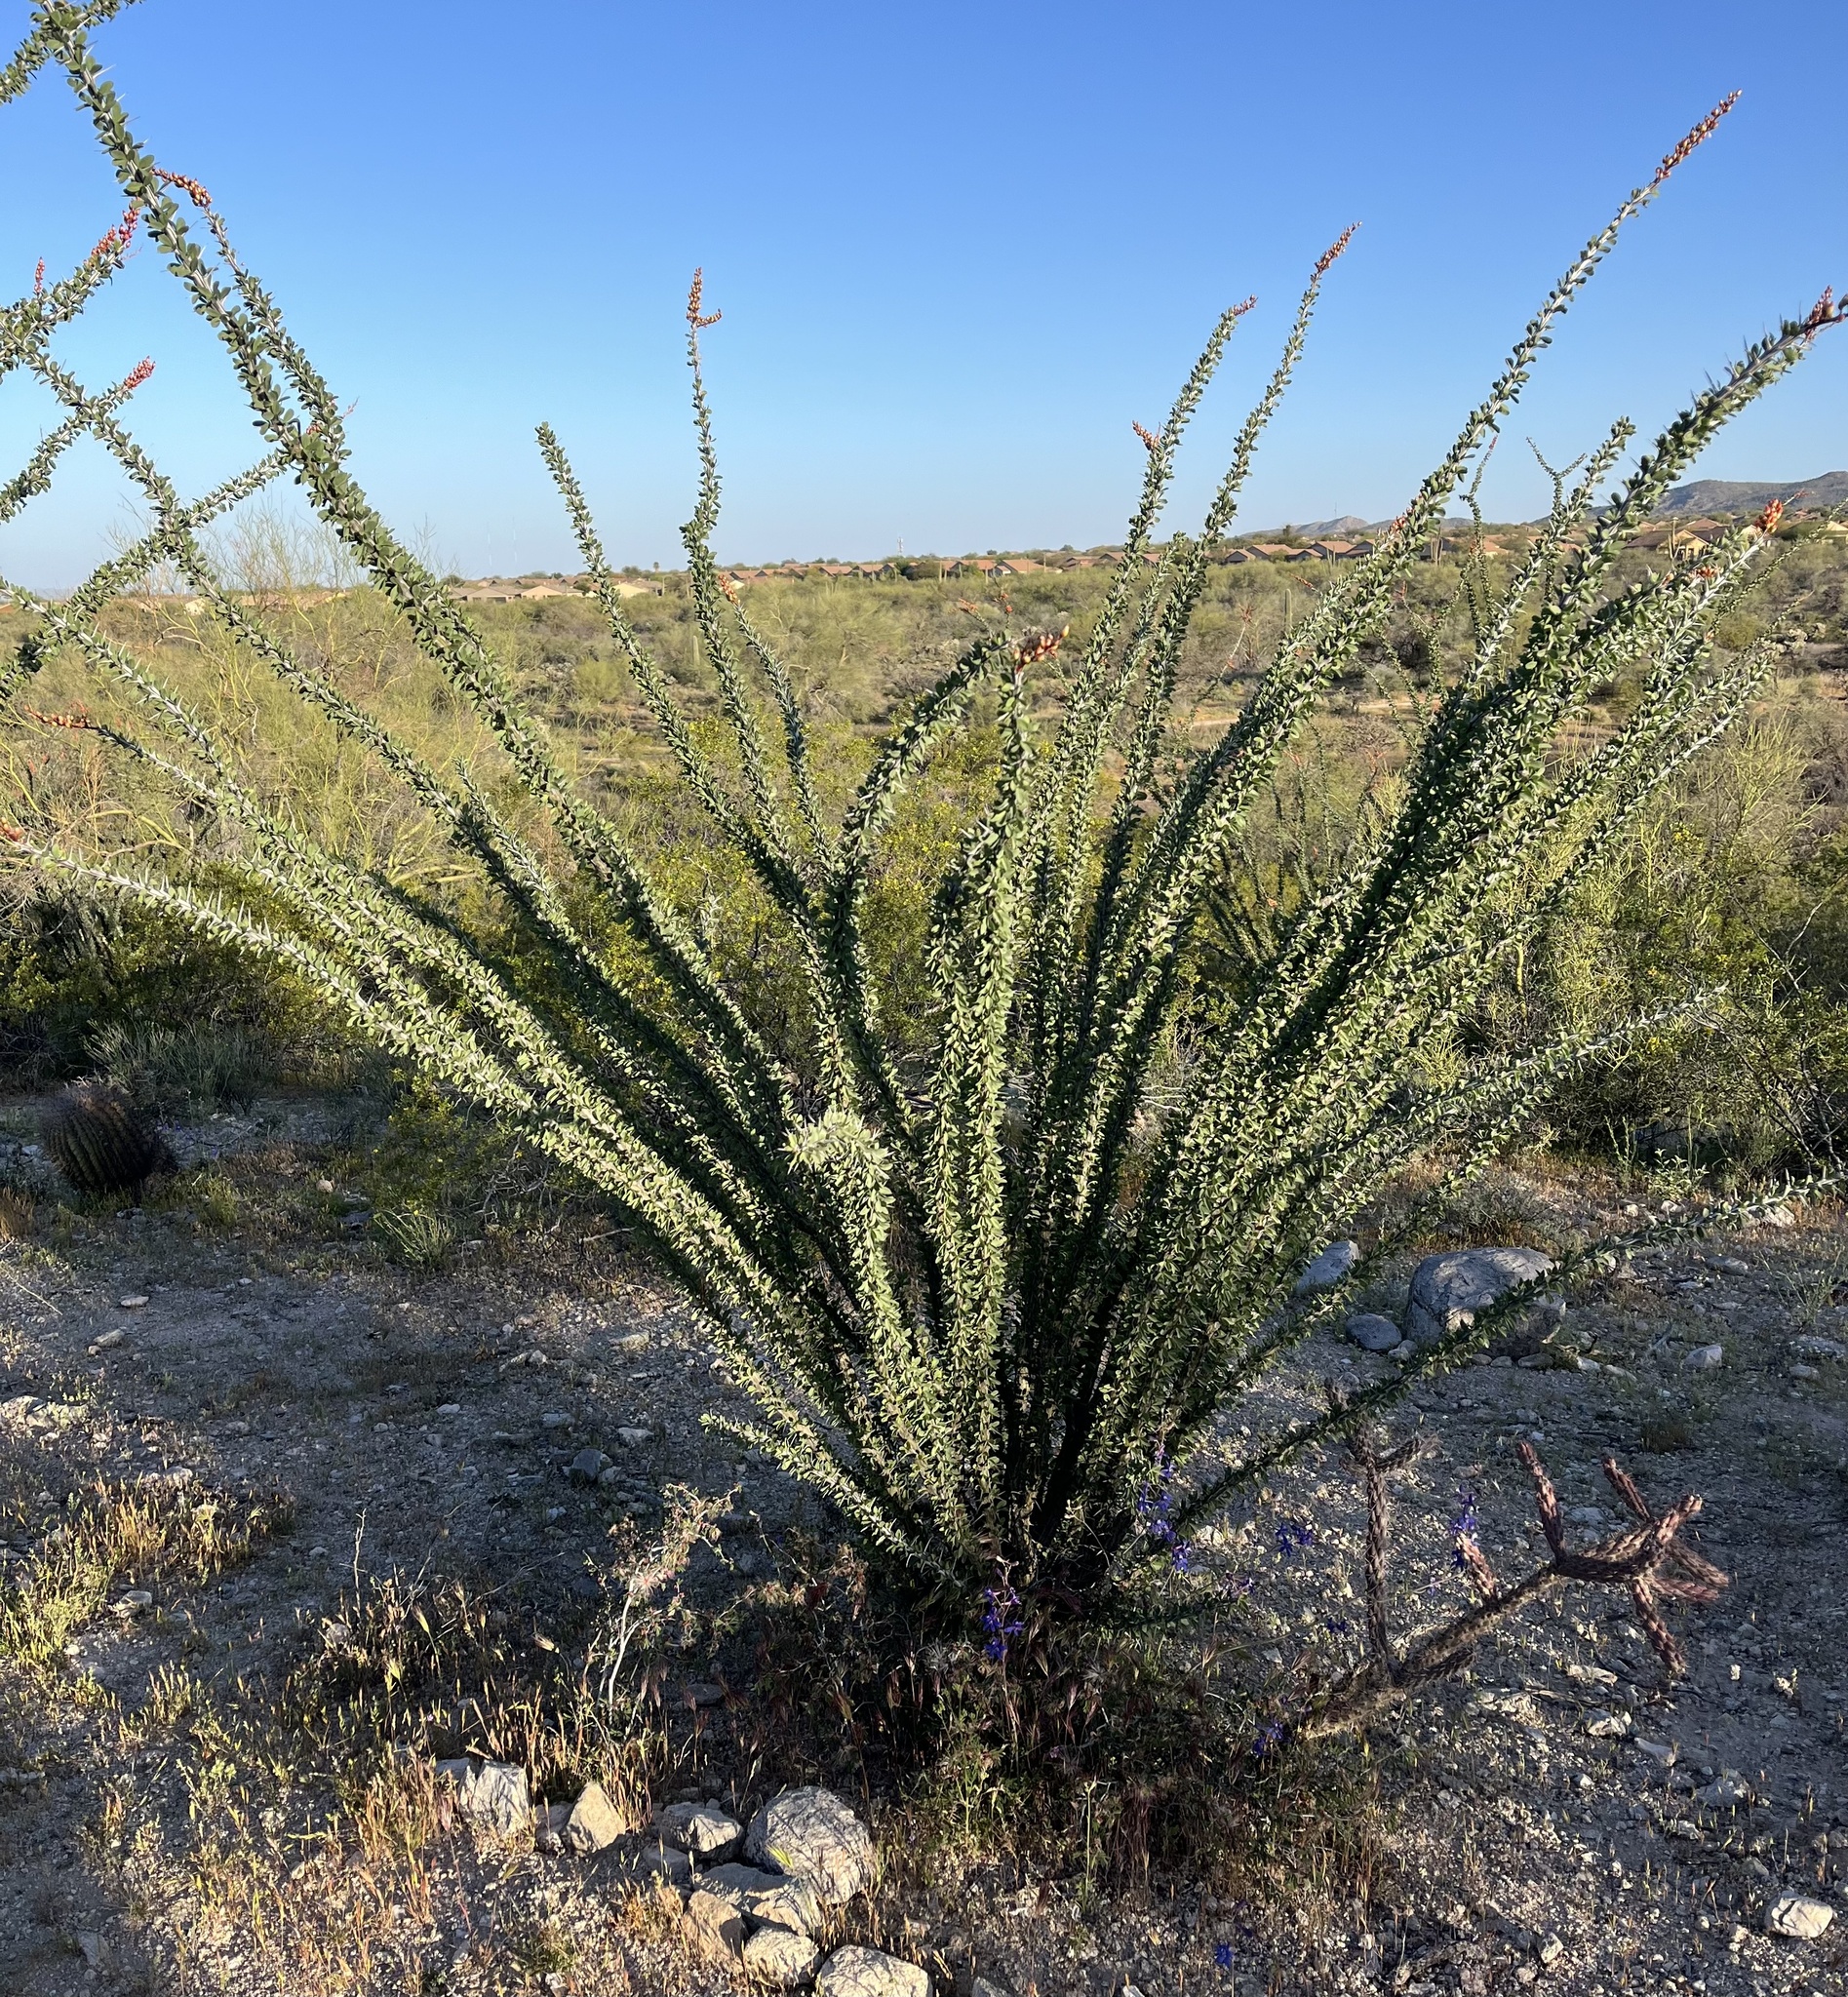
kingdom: Plantae
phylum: Tracheophyta
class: Magnoliopsida
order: Ericales
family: Fouquieriaceae
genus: Fouquieria
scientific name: Fouquieria splendens
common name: Vine-cactus
